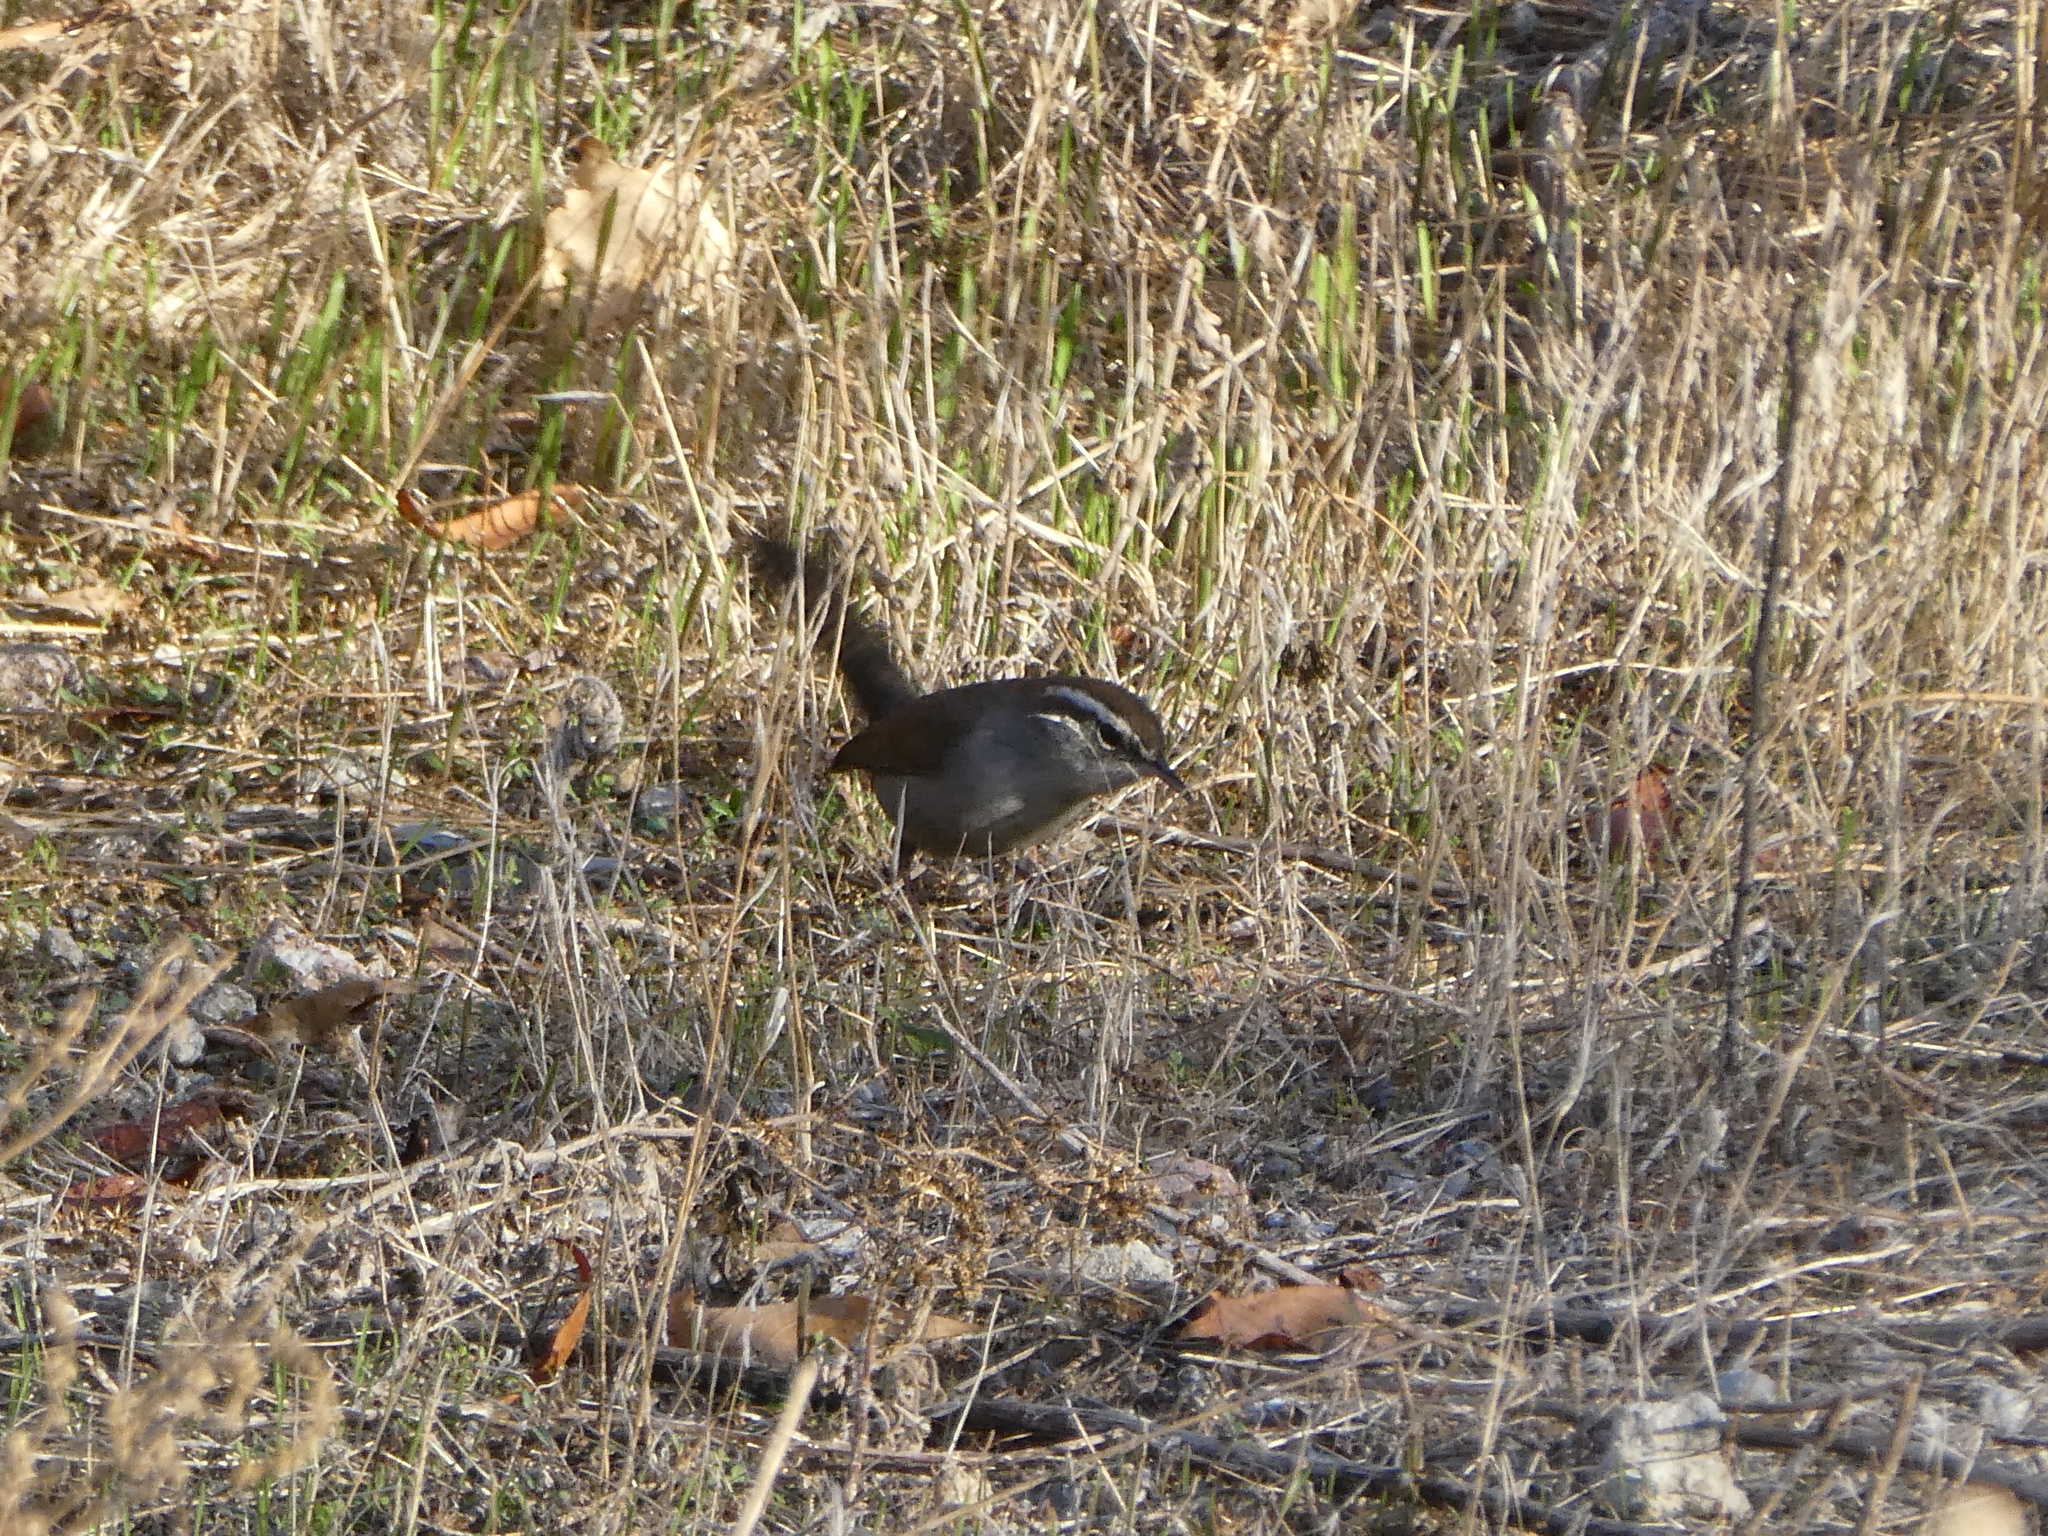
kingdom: Animalia
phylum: Chordata
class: Aves
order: Passeriformes
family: Troglodytidae
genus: Thryomanes
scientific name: Thryomanes bewickii
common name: Bewick's wren
